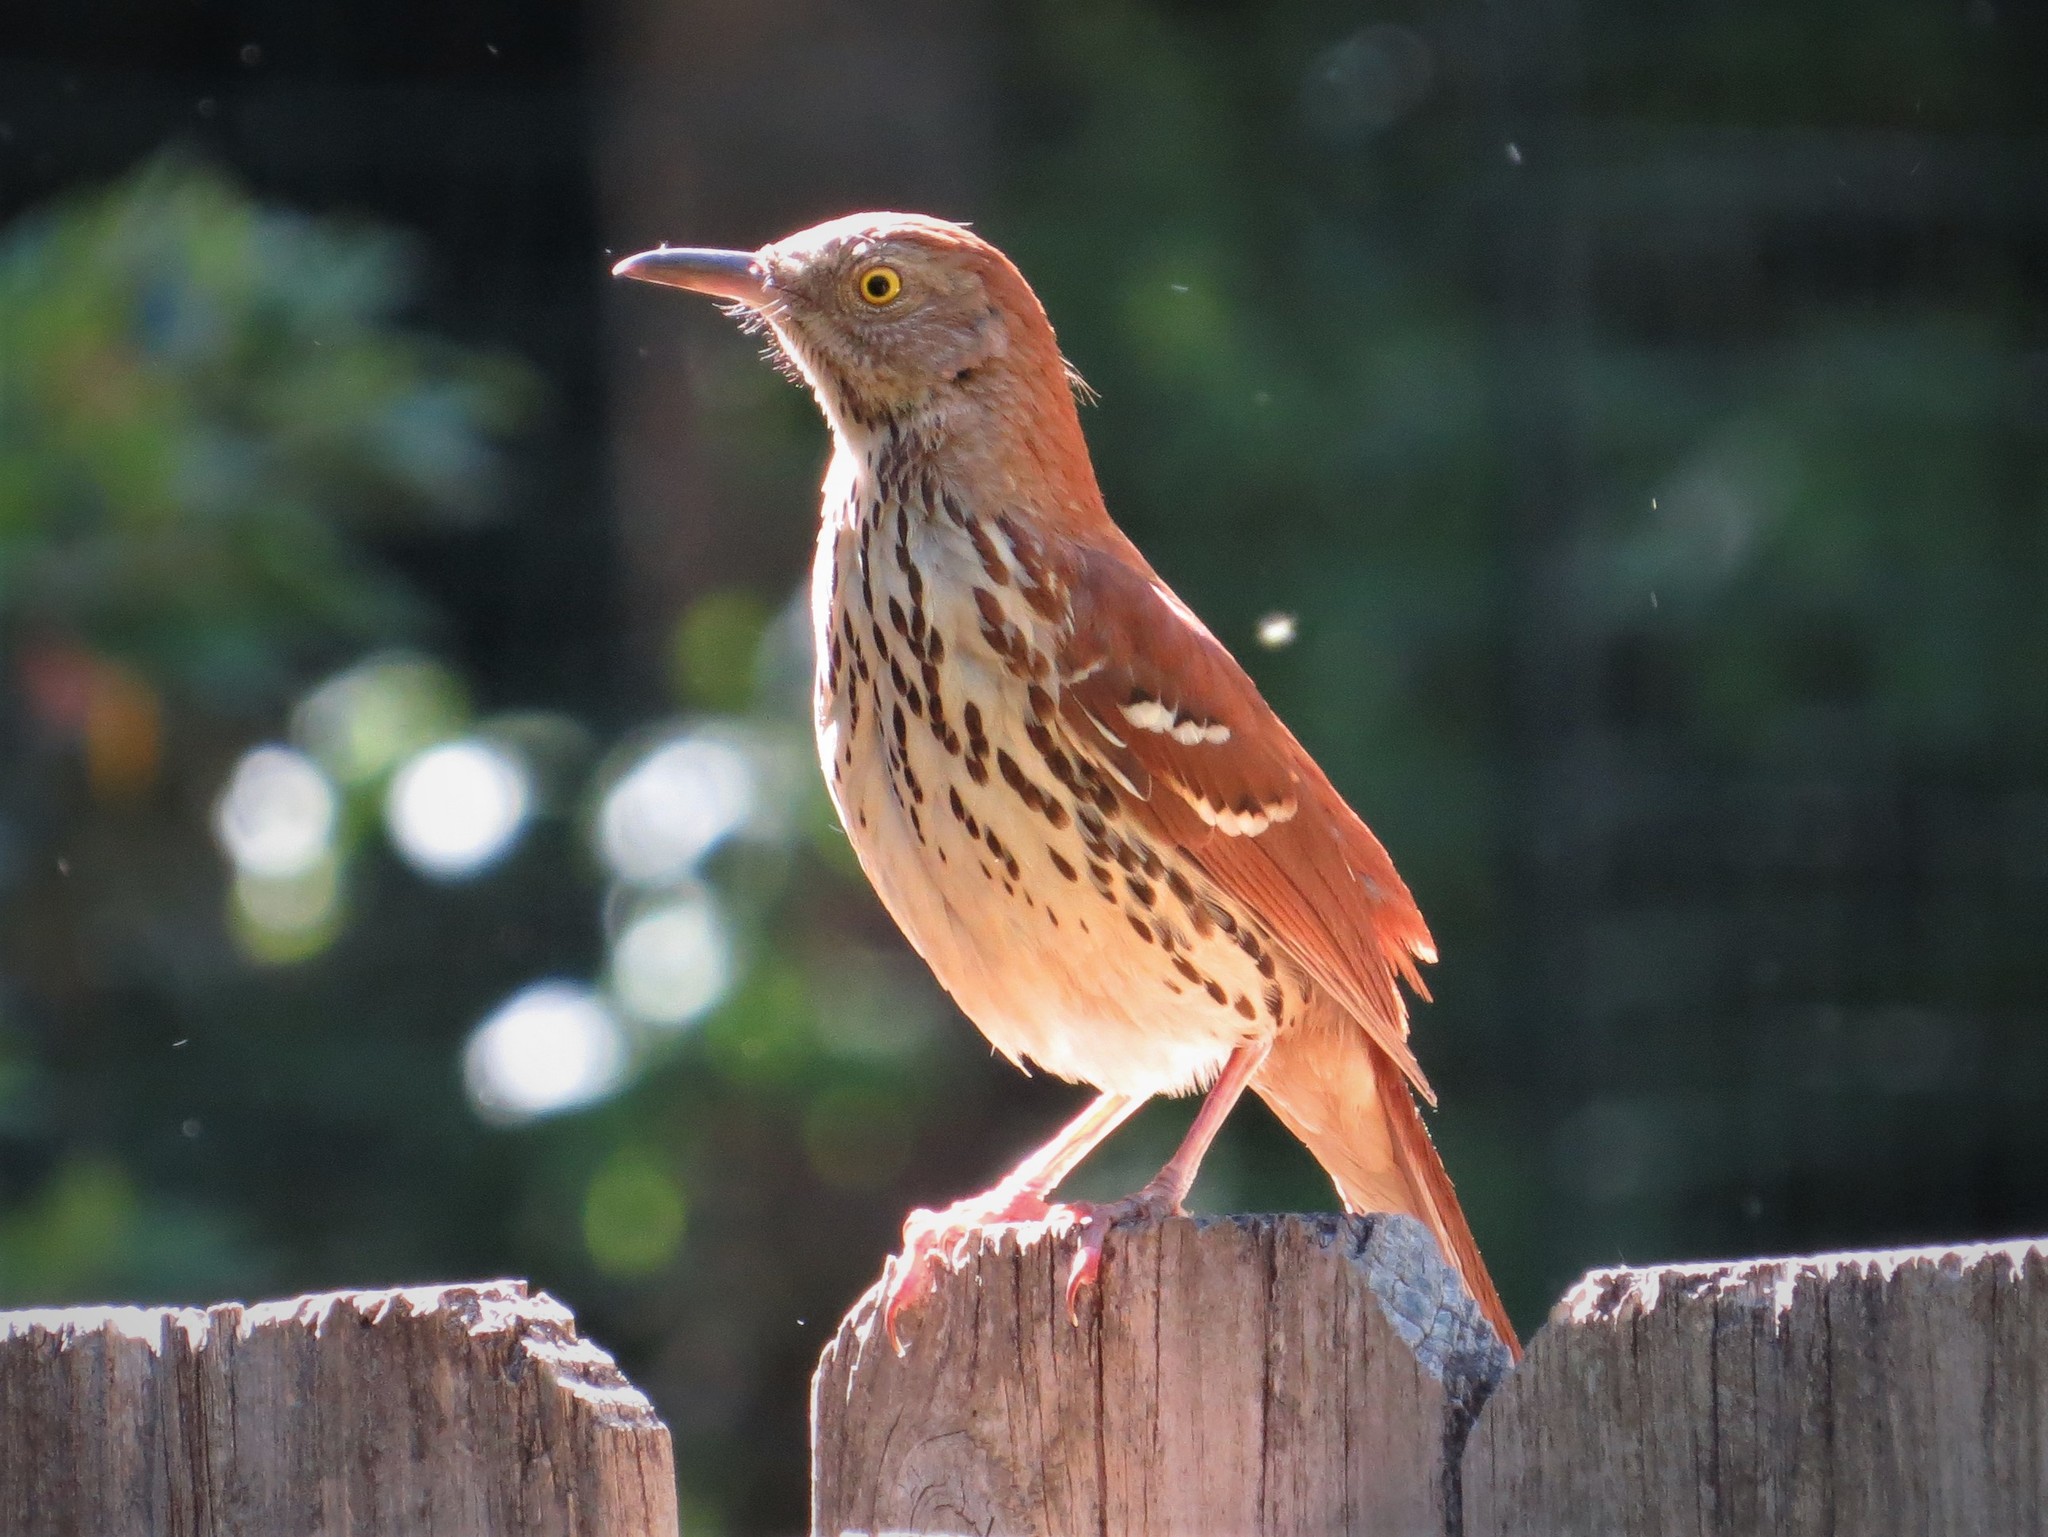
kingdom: Animalia
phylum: Chordata
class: Aves
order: Passeriformes
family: Mimidae
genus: Toxostoma
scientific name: Toxostoma rufum
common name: Brown thrasher
